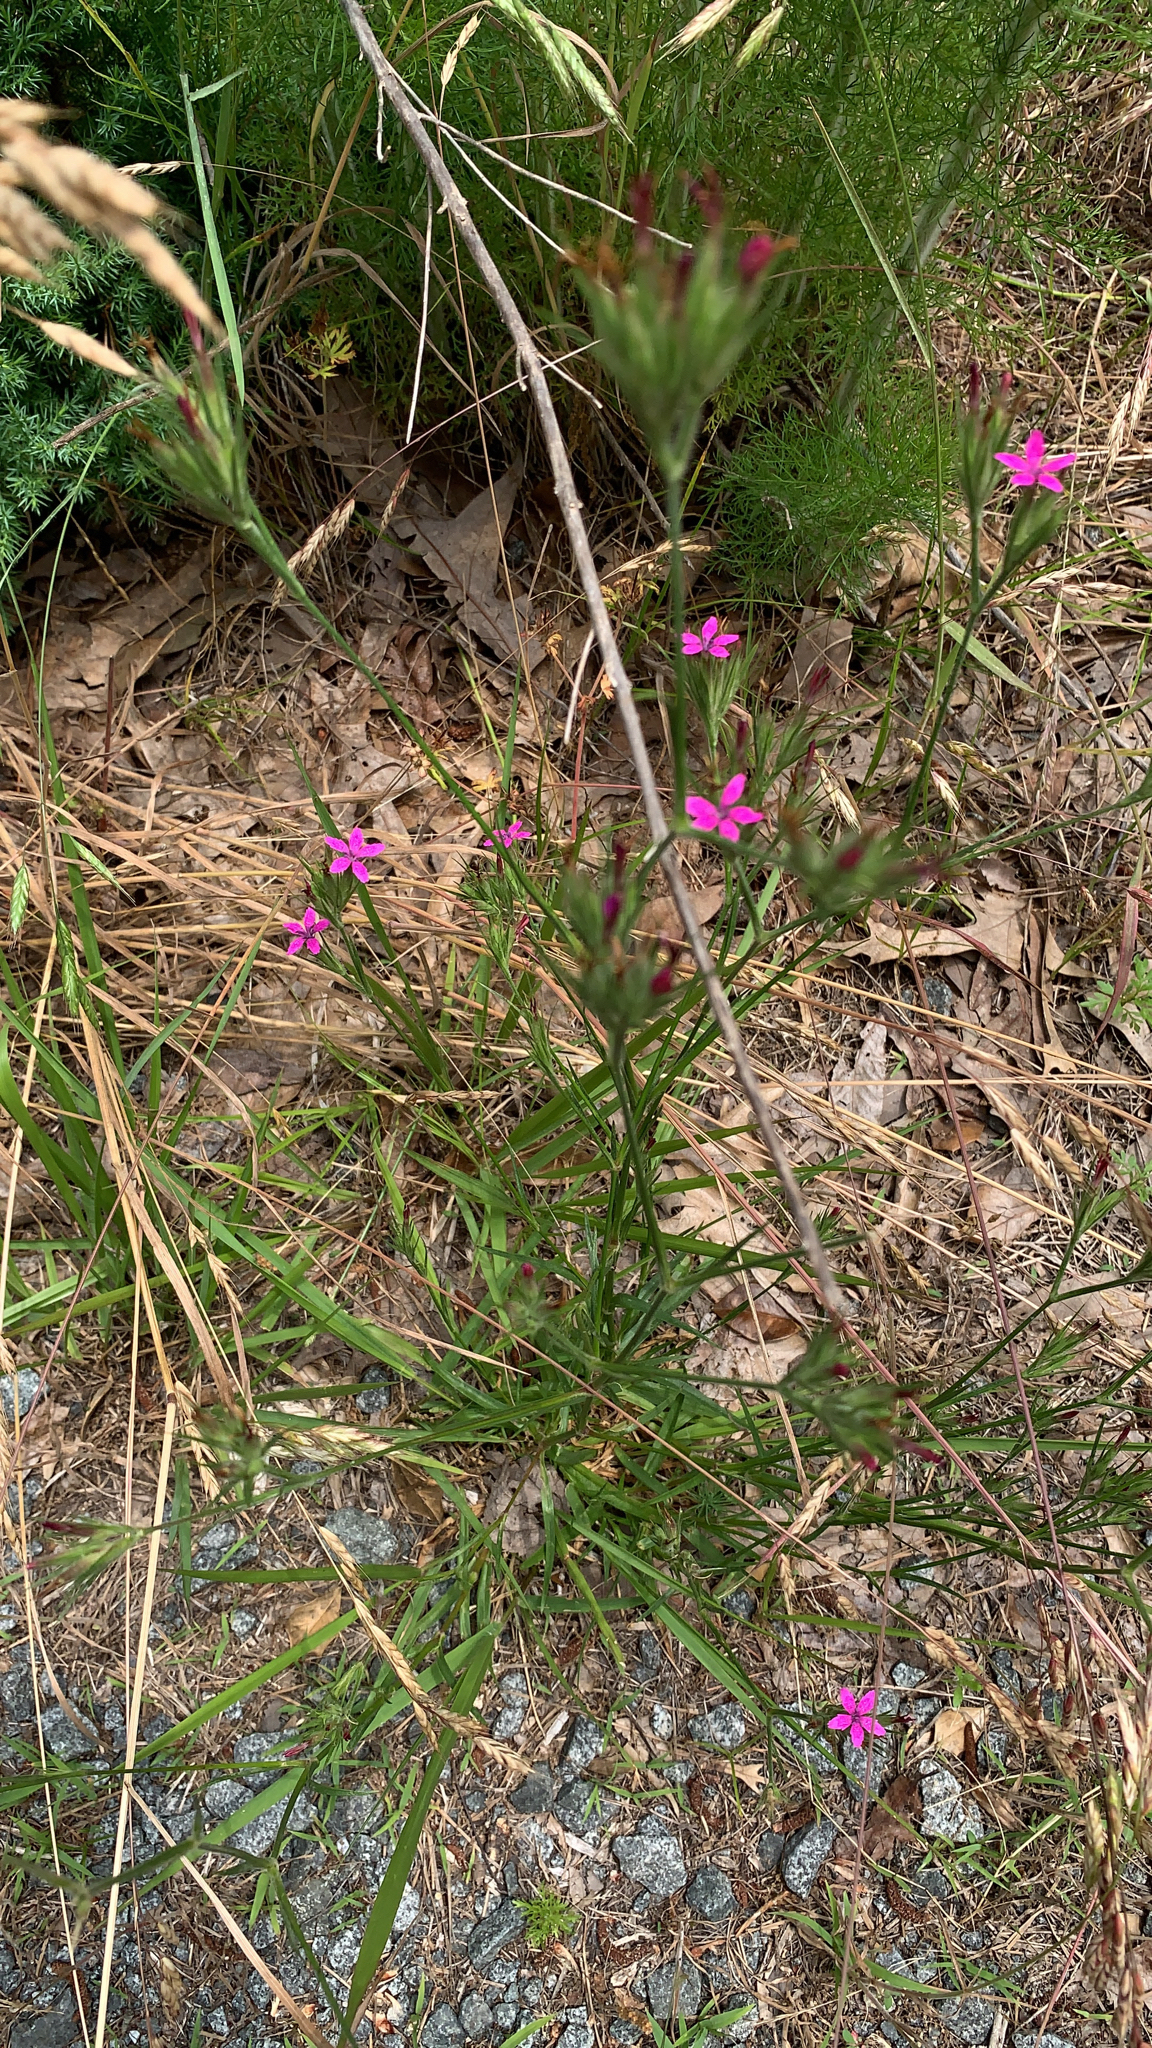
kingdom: Plantae
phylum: Tracheophyta
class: Magnoliopsida
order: Caryophyllales
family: Caryophyllaceae
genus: Dianthus
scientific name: Dianthus armeria
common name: Deptford pink
